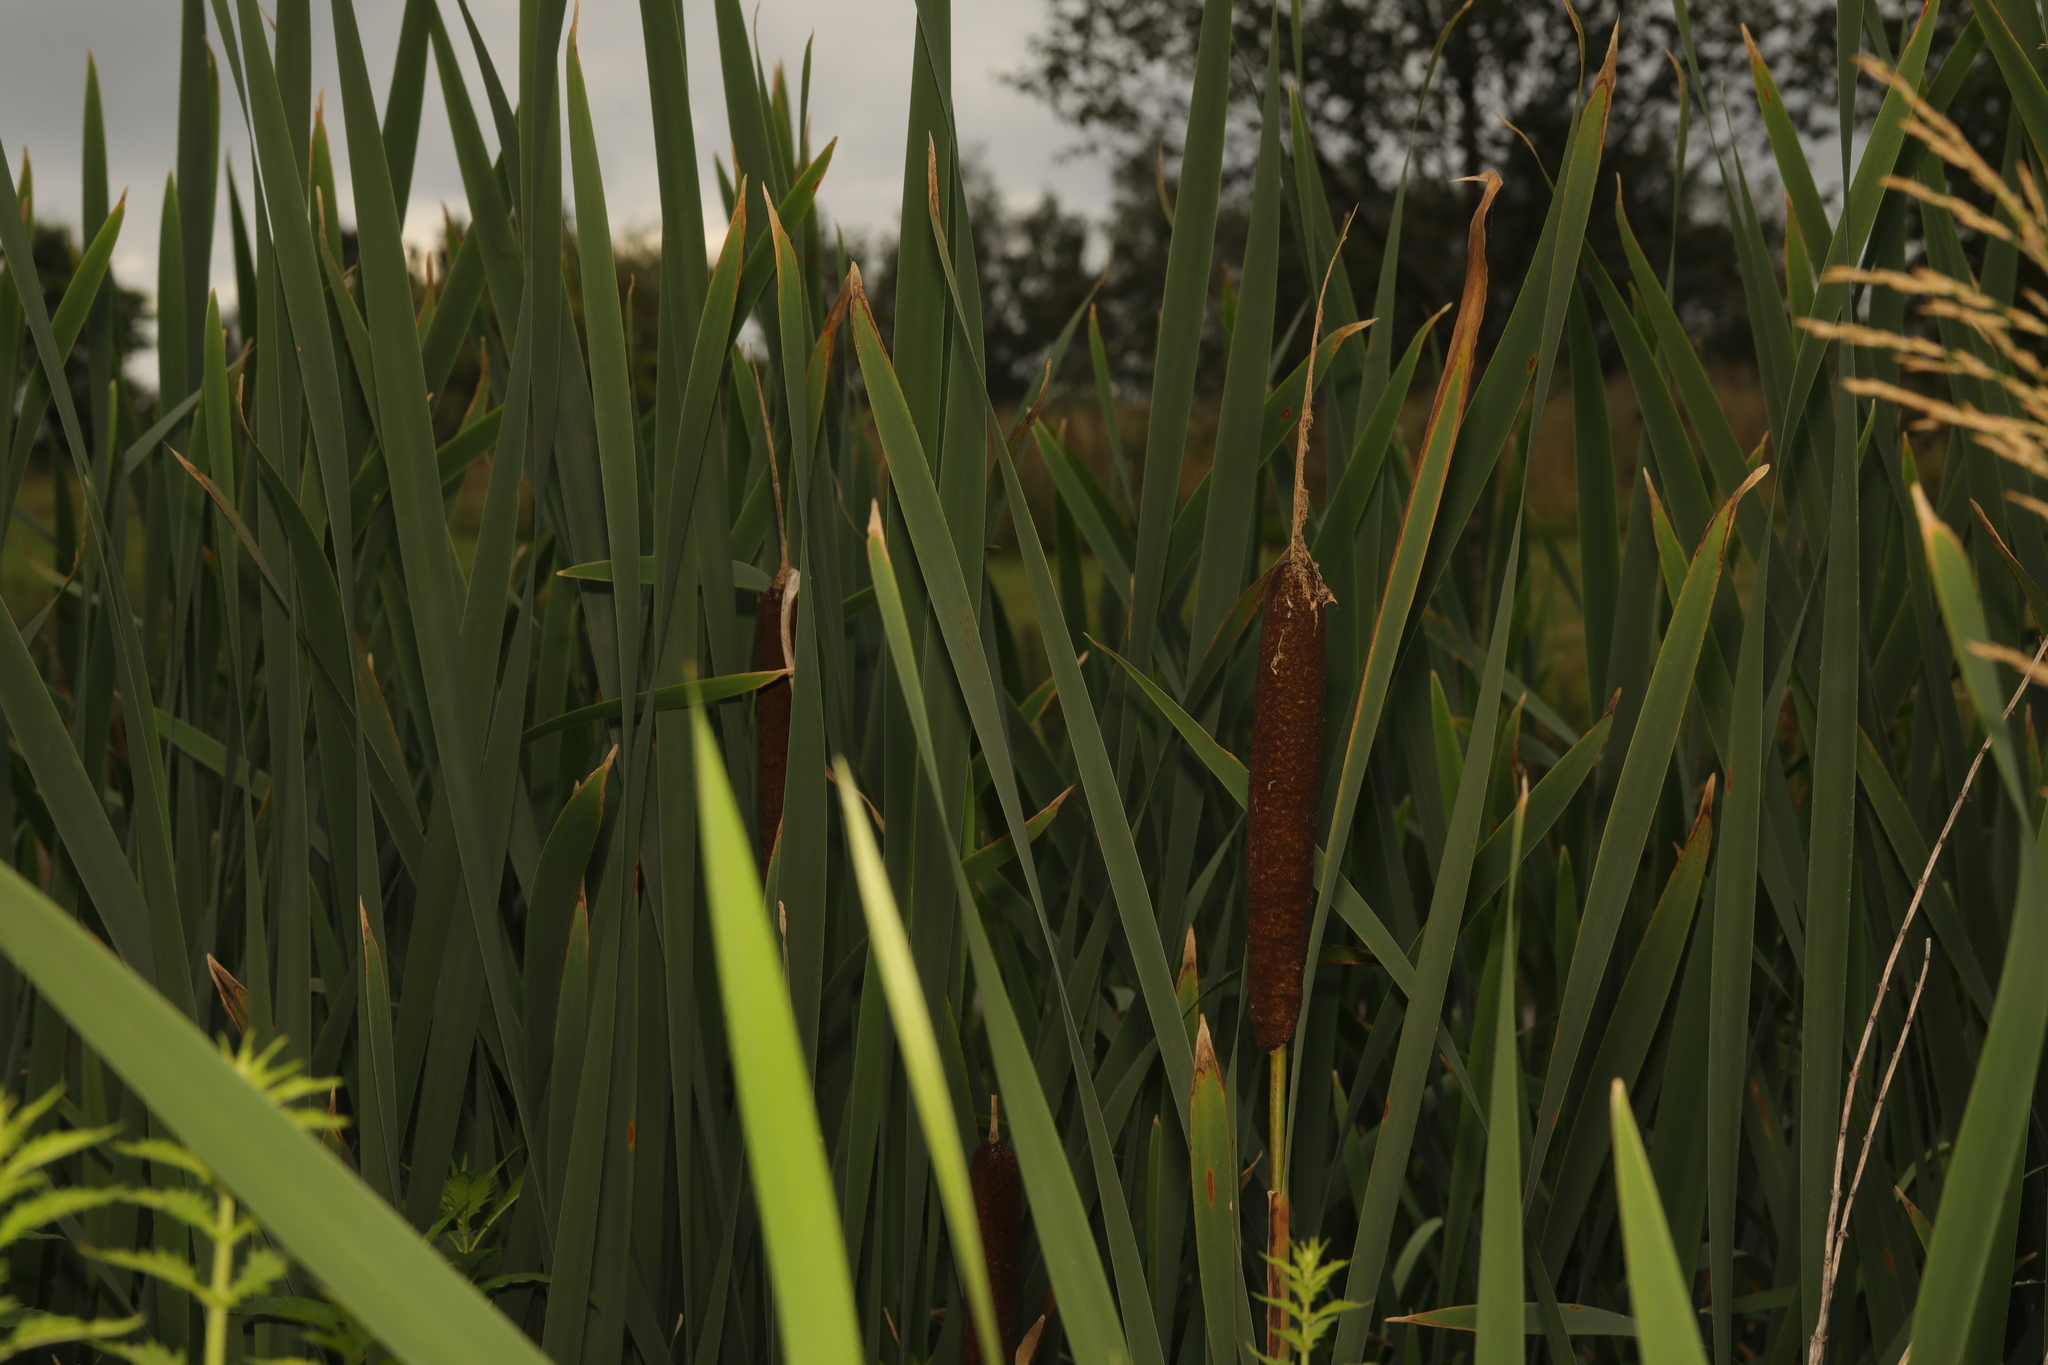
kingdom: Plantae
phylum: Tracheophyta
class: Liliopsida
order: Poales
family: Typhaceae
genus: Typha
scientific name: Typha latifolia
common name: Broadleaf cattail
